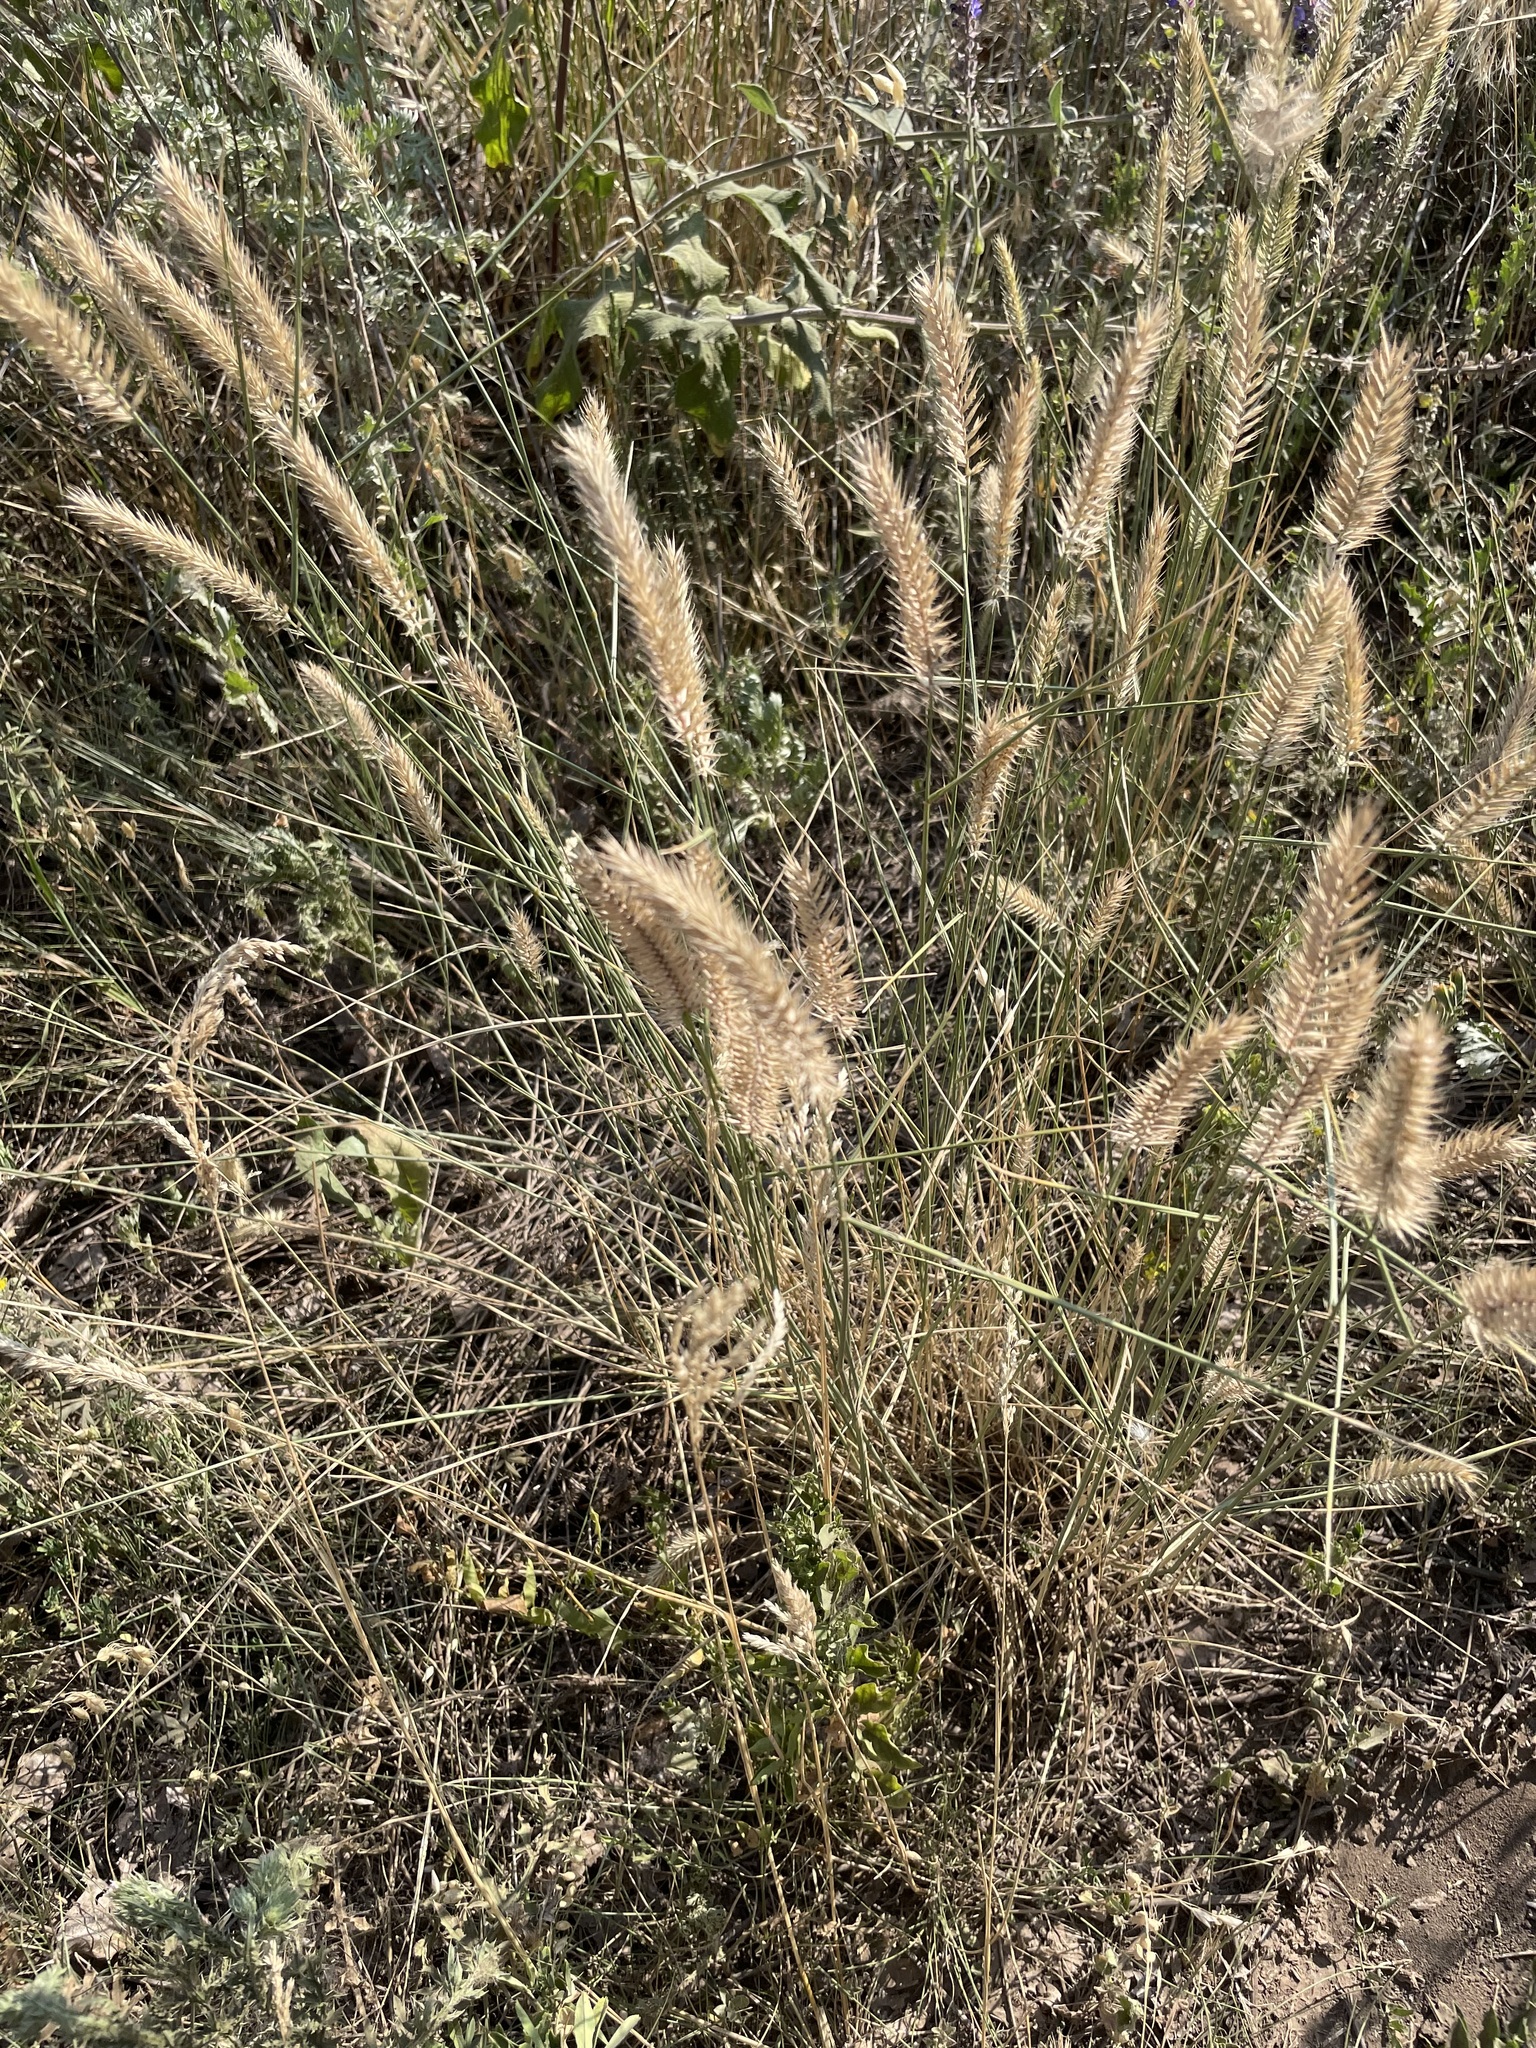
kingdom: Plantae
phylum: Tracheophyta
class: Liliopsida
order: Poales
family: Poaceae
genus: Agropyron
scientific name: Agropyron cristatum
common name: Crested wheatgrass
